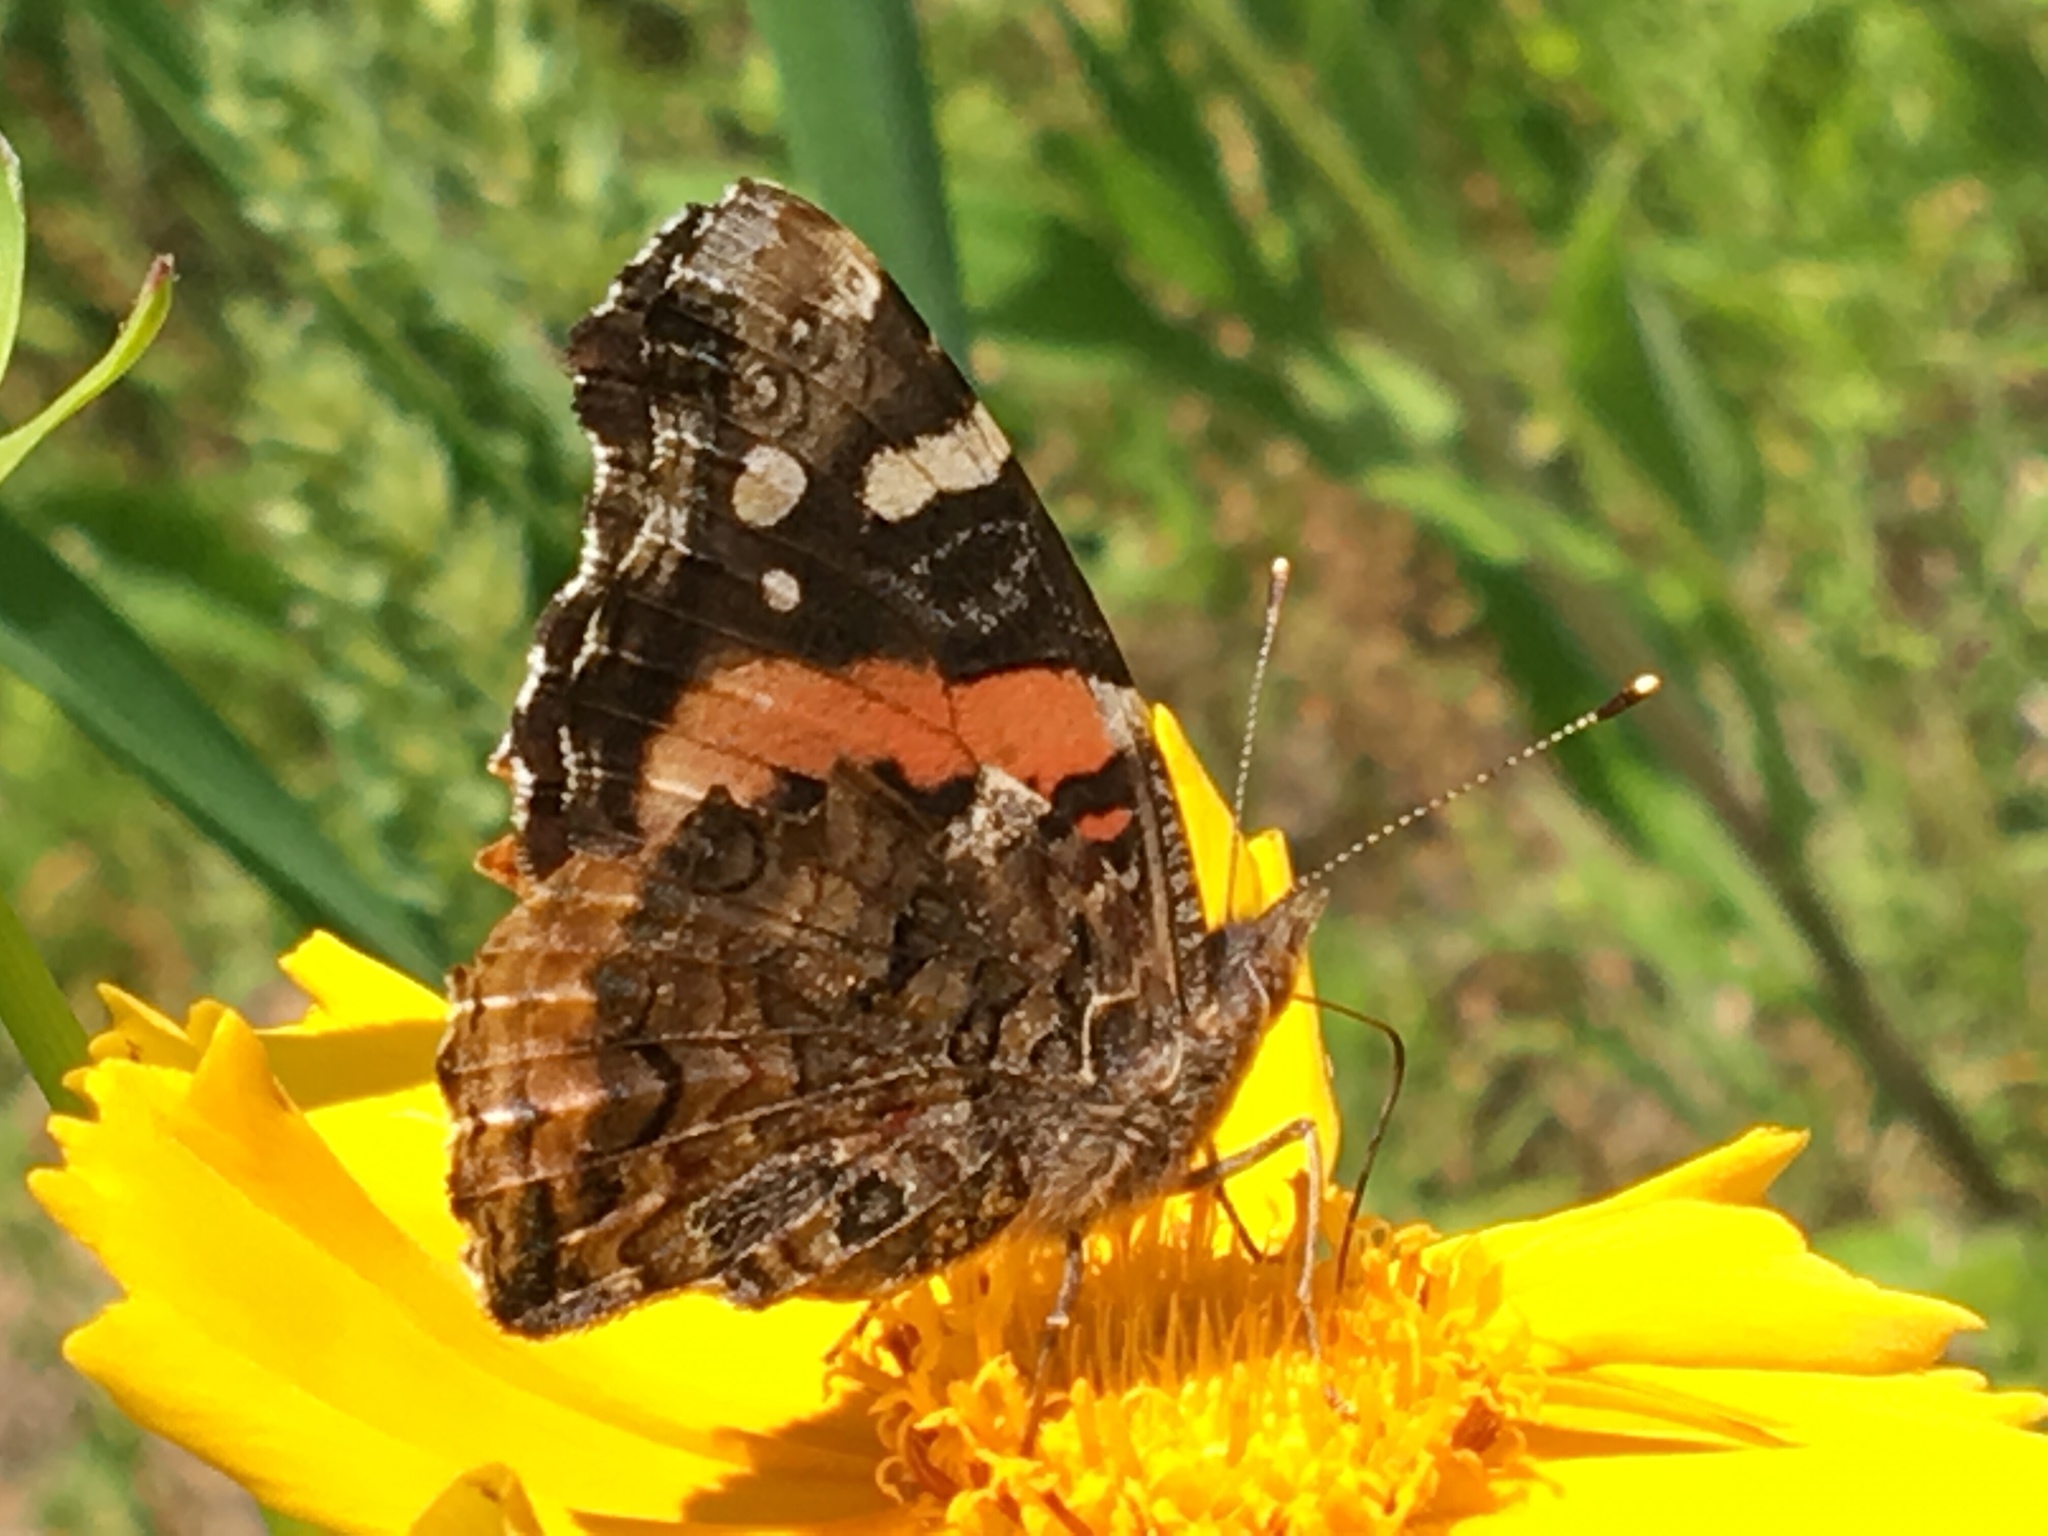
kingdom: Animalia
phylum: Arthropoda
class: Insecta
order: Lepidoptera
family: Nymphalidae
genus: Vanessa
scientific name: Vanessa atalanta
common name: Red admiral
